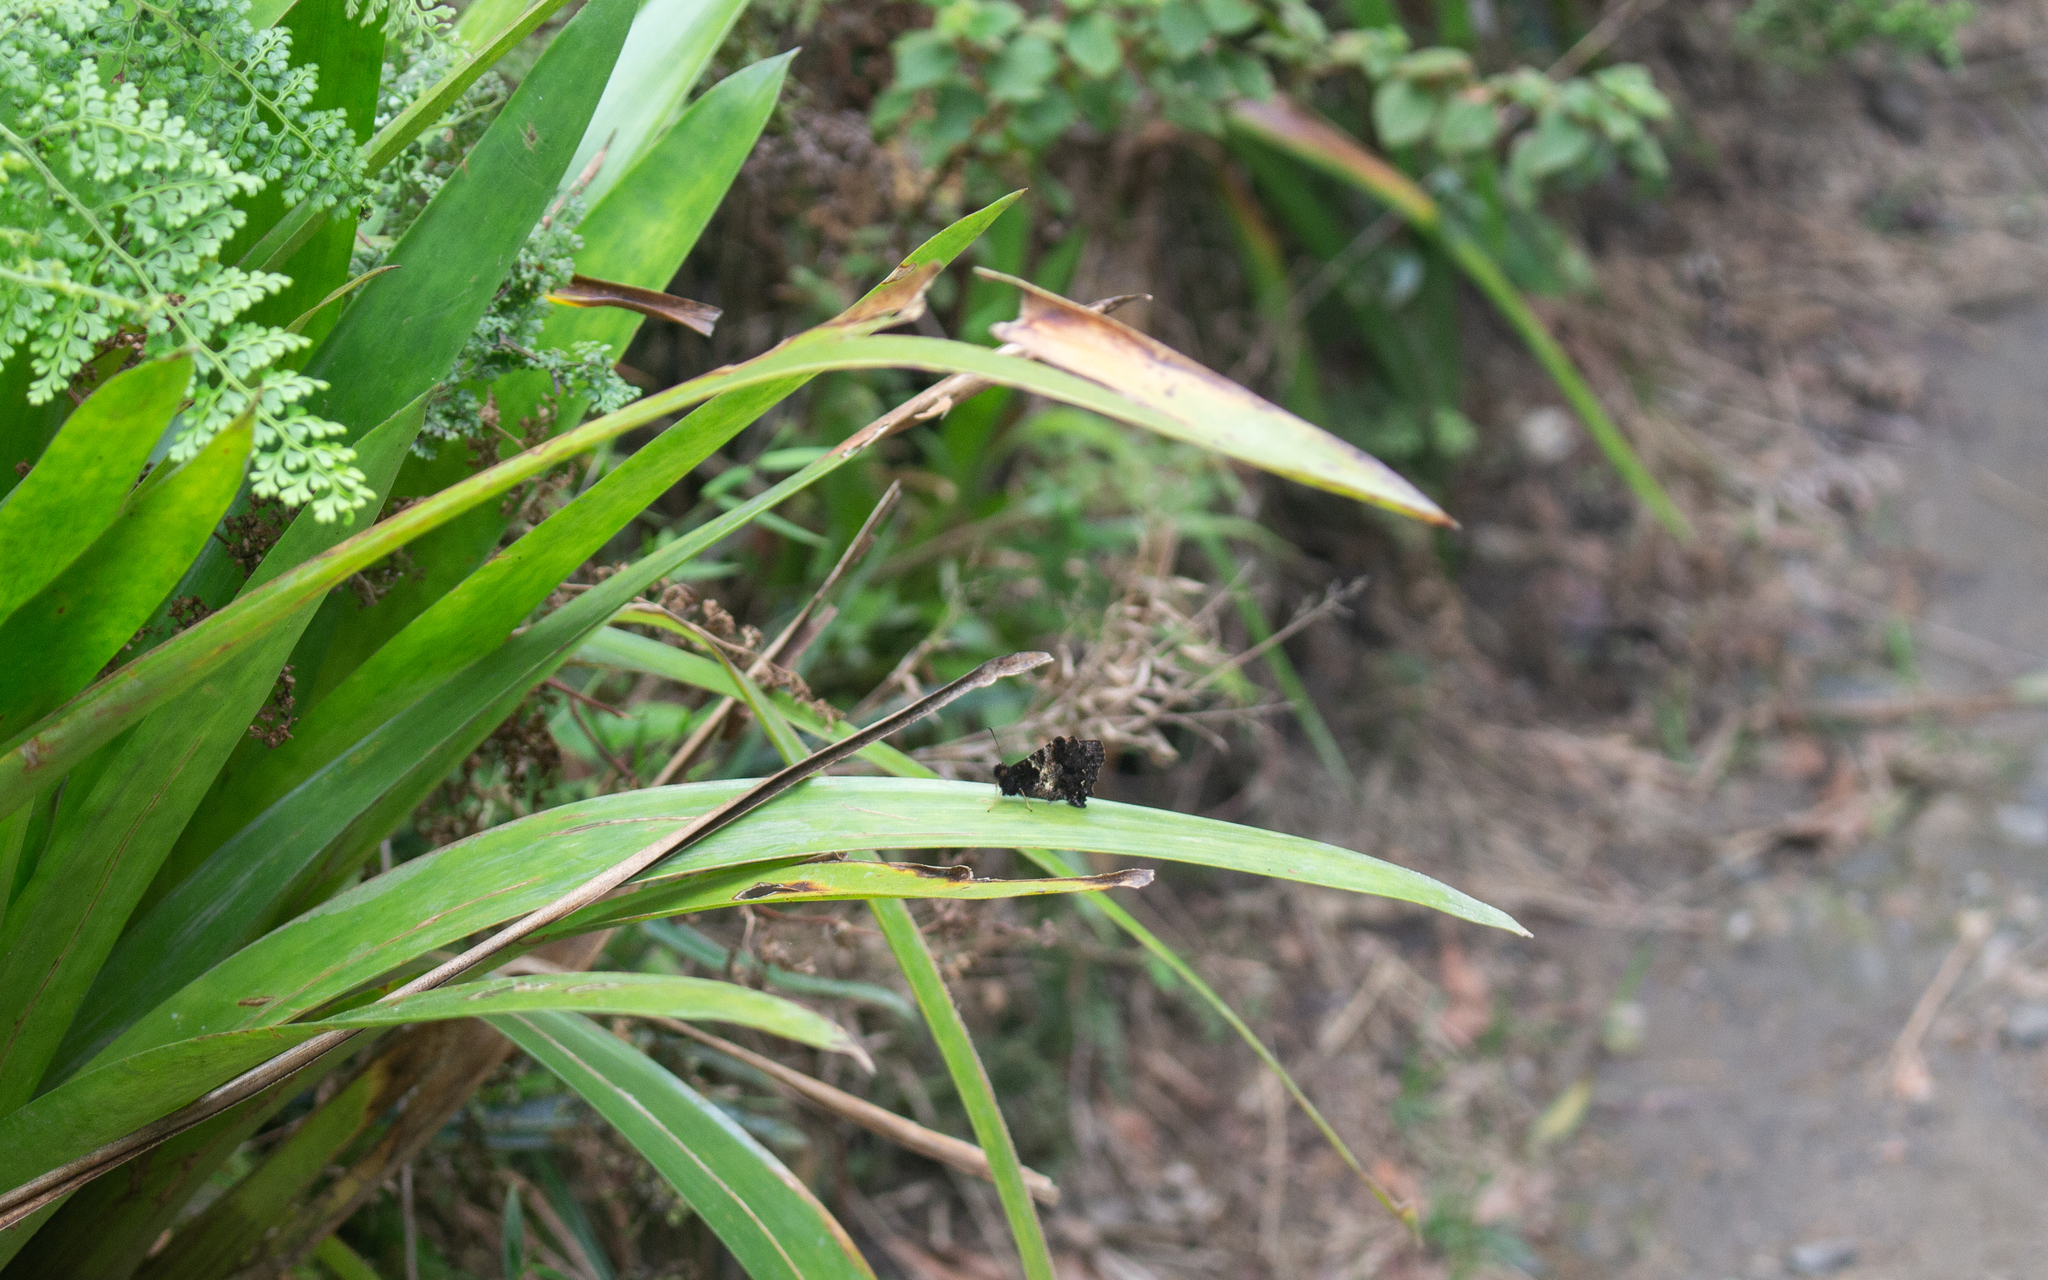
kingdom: Animalia
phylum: Arthropoda
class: Insecta
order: Lepidoptera
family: Nymphalidae
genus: Steroma
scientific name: Steroma polyxo
